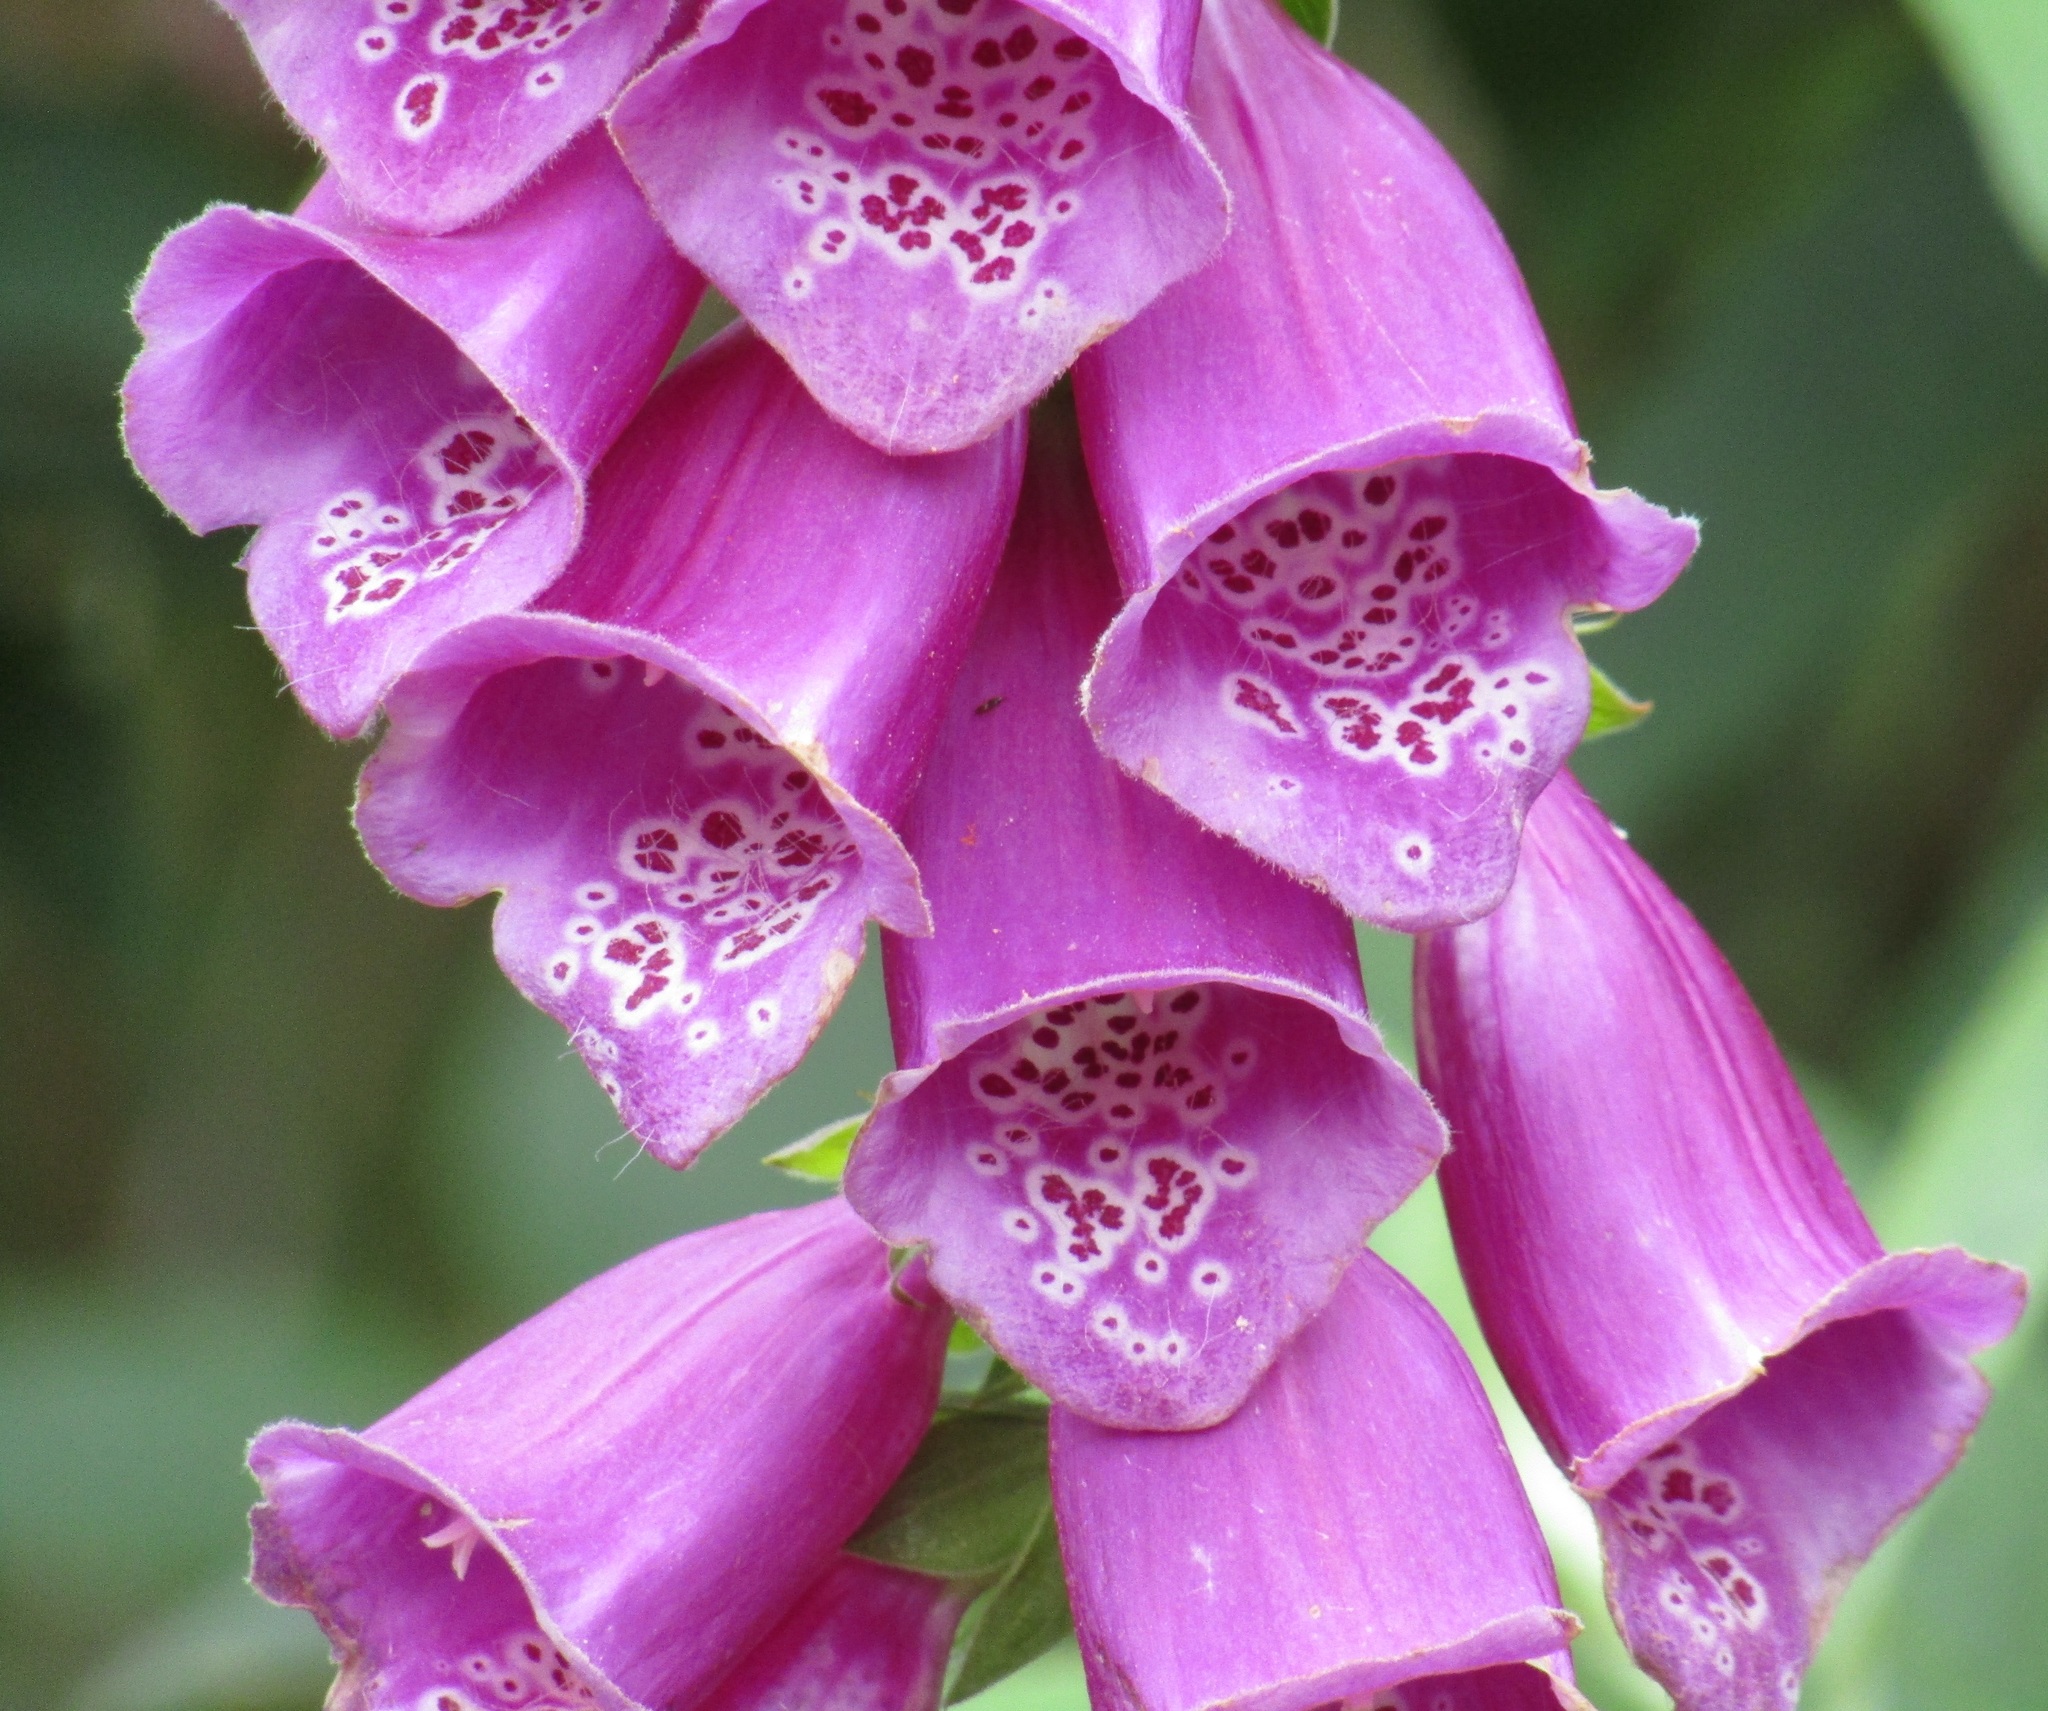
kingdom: Plantae
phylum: Tracheophyta
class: Magnoliopsida
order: Lamiales
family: Plantaginaceae
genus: Digitalis
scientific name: Digitalis purpurea
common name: Foxglove
